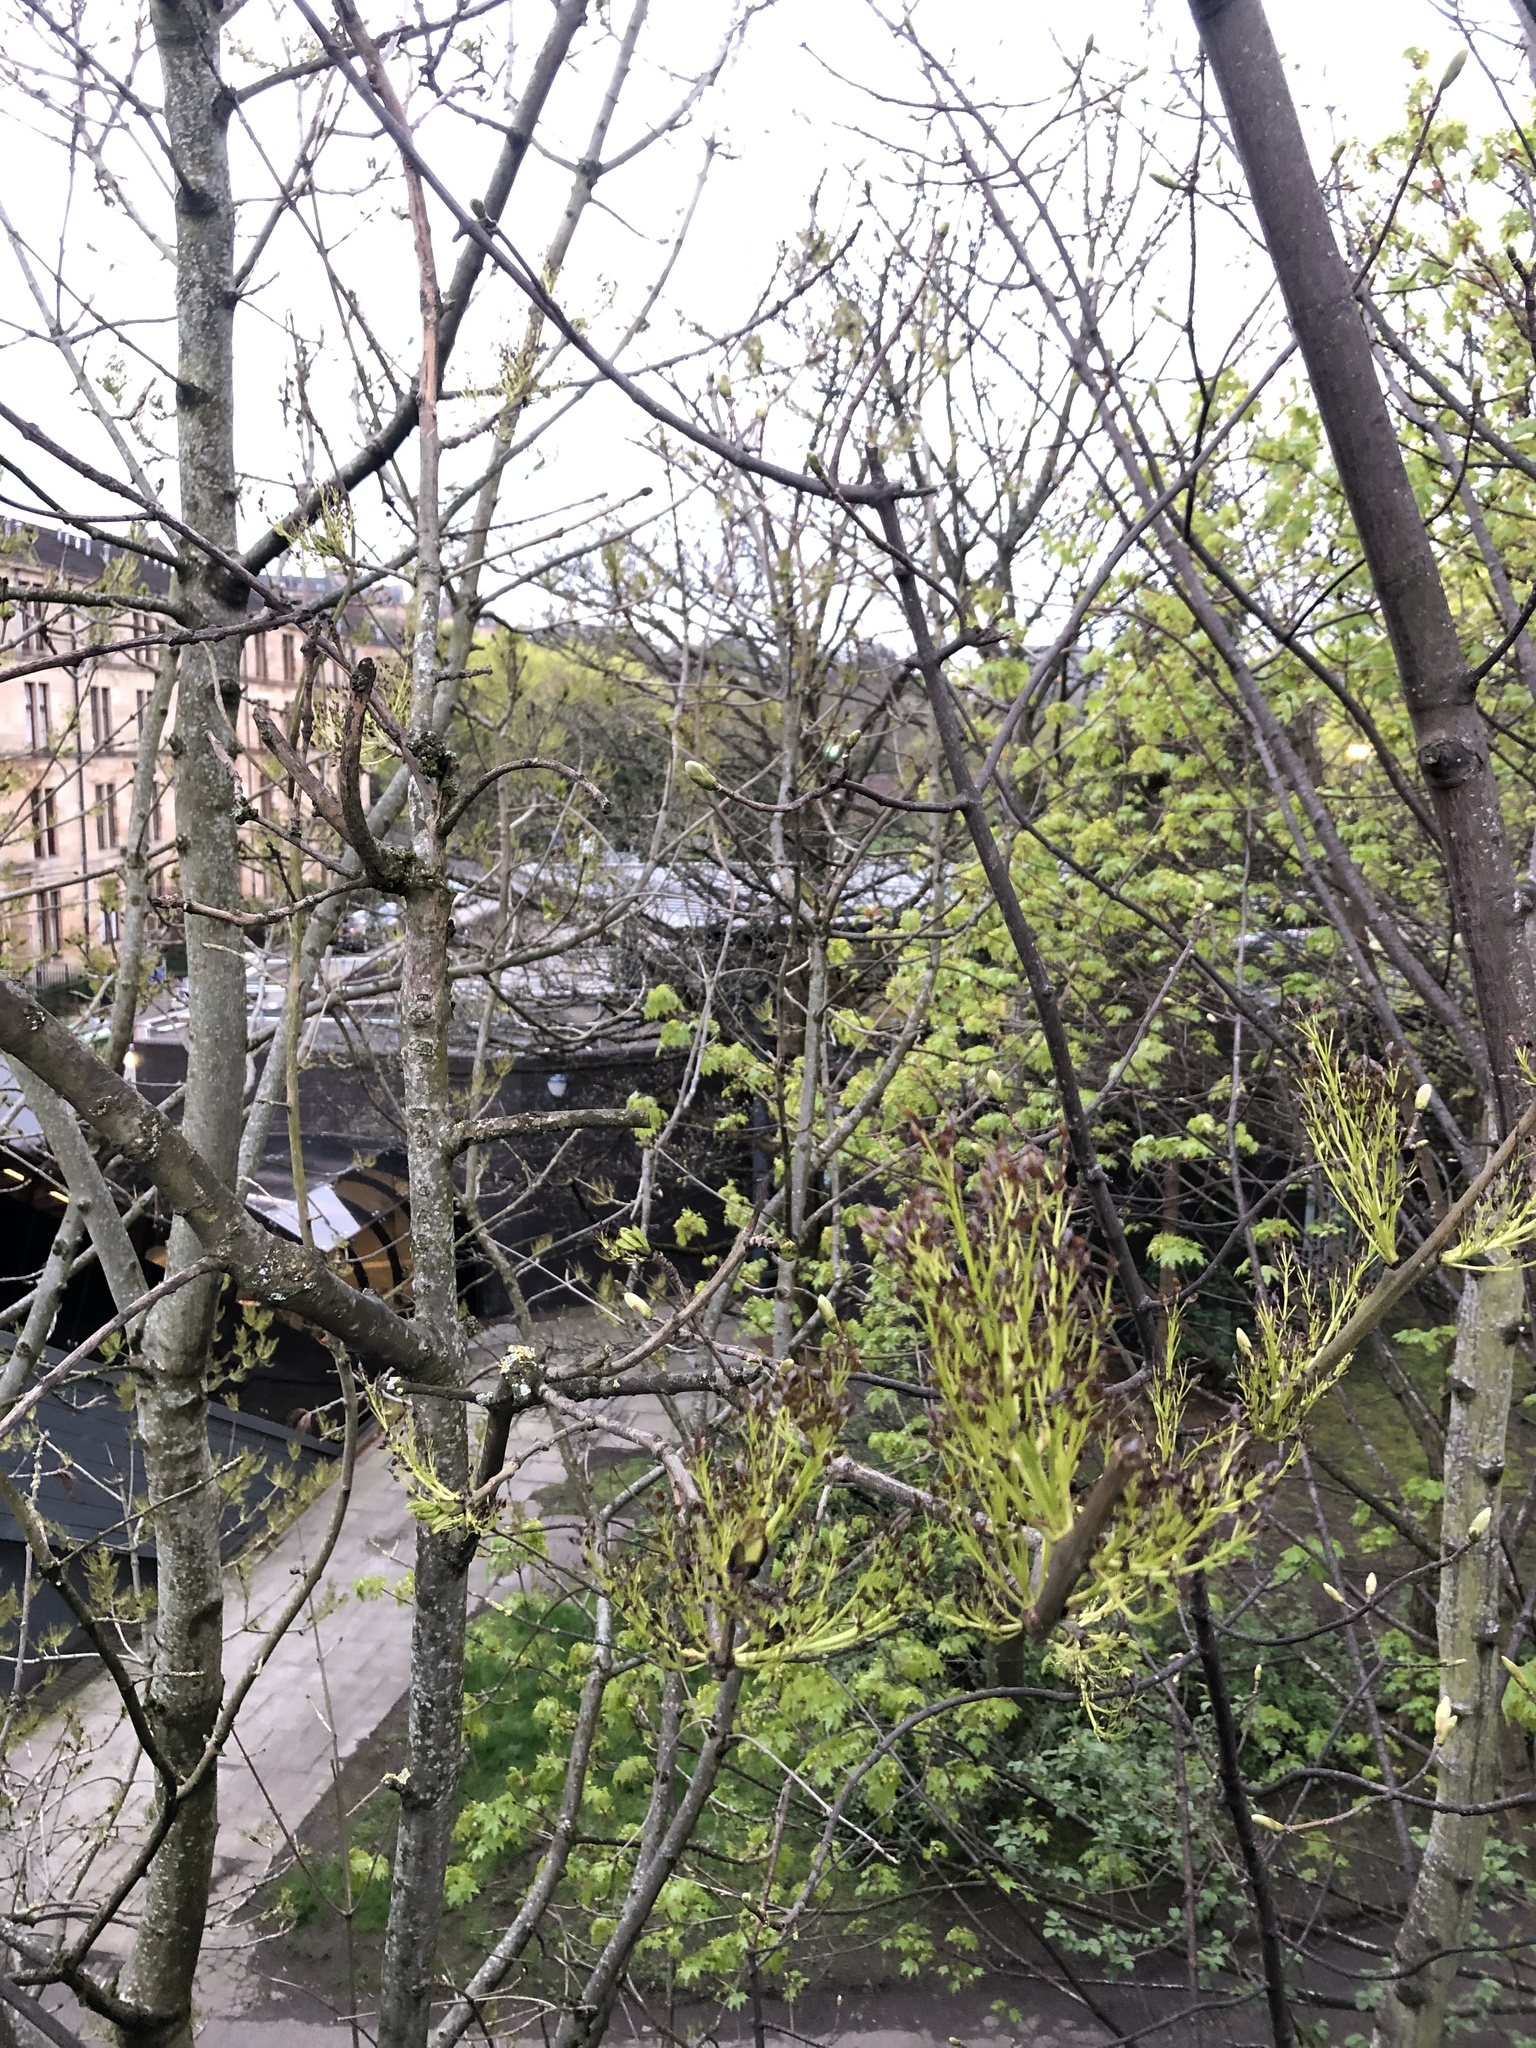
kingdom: Plantae
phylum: Tracheophyta
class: Magnoliopsida
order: Lamiales
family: Oleaceae
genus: Fraxinus
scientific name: Fraxinus excelsior
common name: European ash
